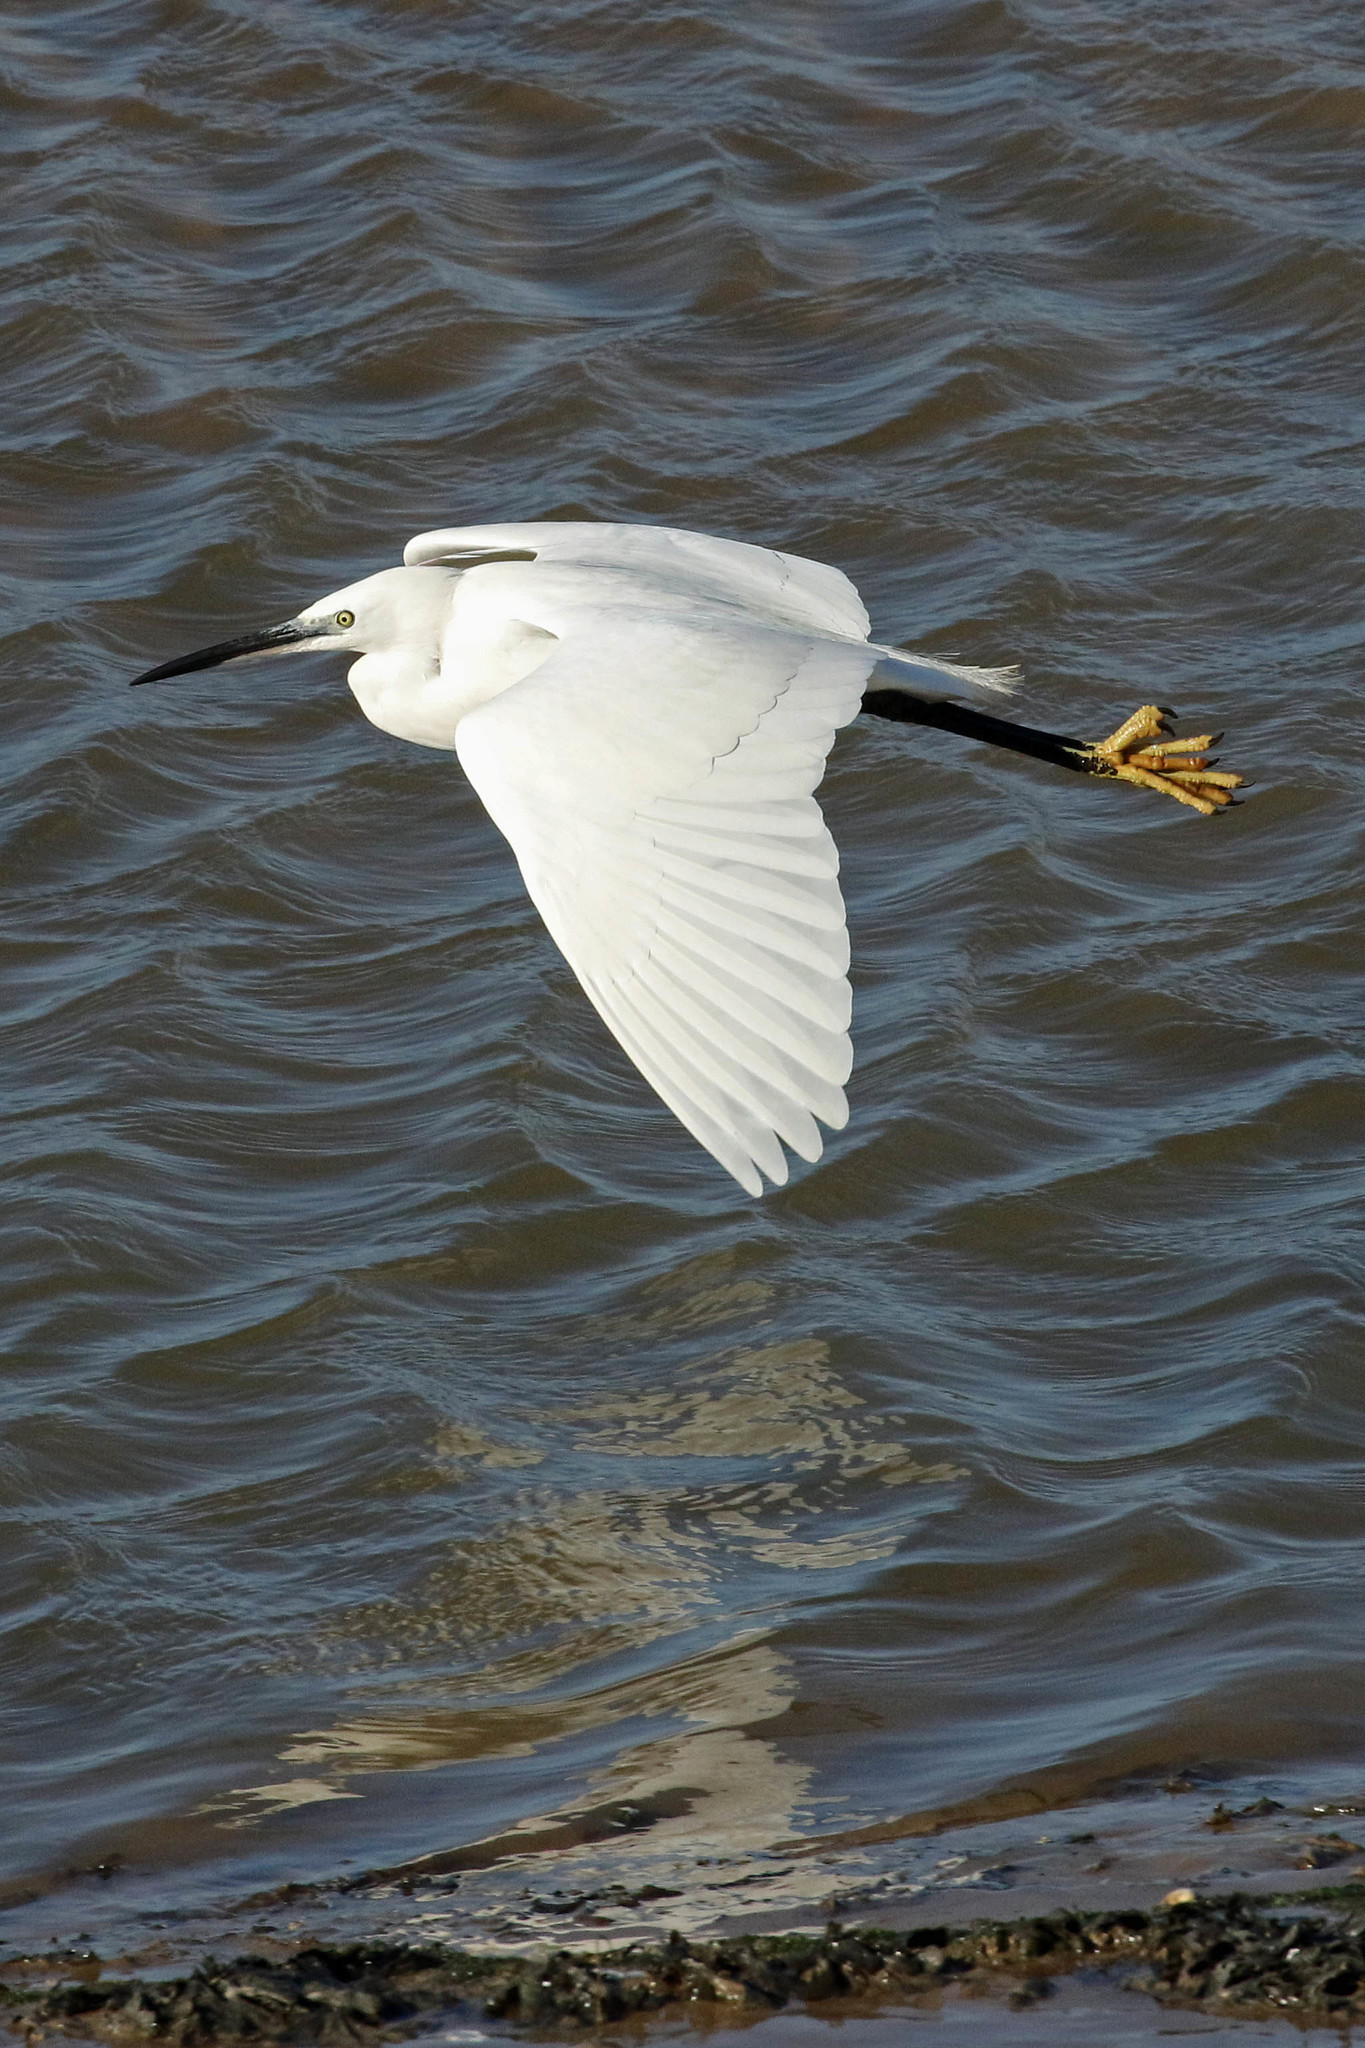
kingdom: Animalia
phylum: Chordata
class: Aves
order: Pelecaniformes
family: Ardeidae
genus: Egretta
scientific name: Egretta garzetta
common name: Little egret
